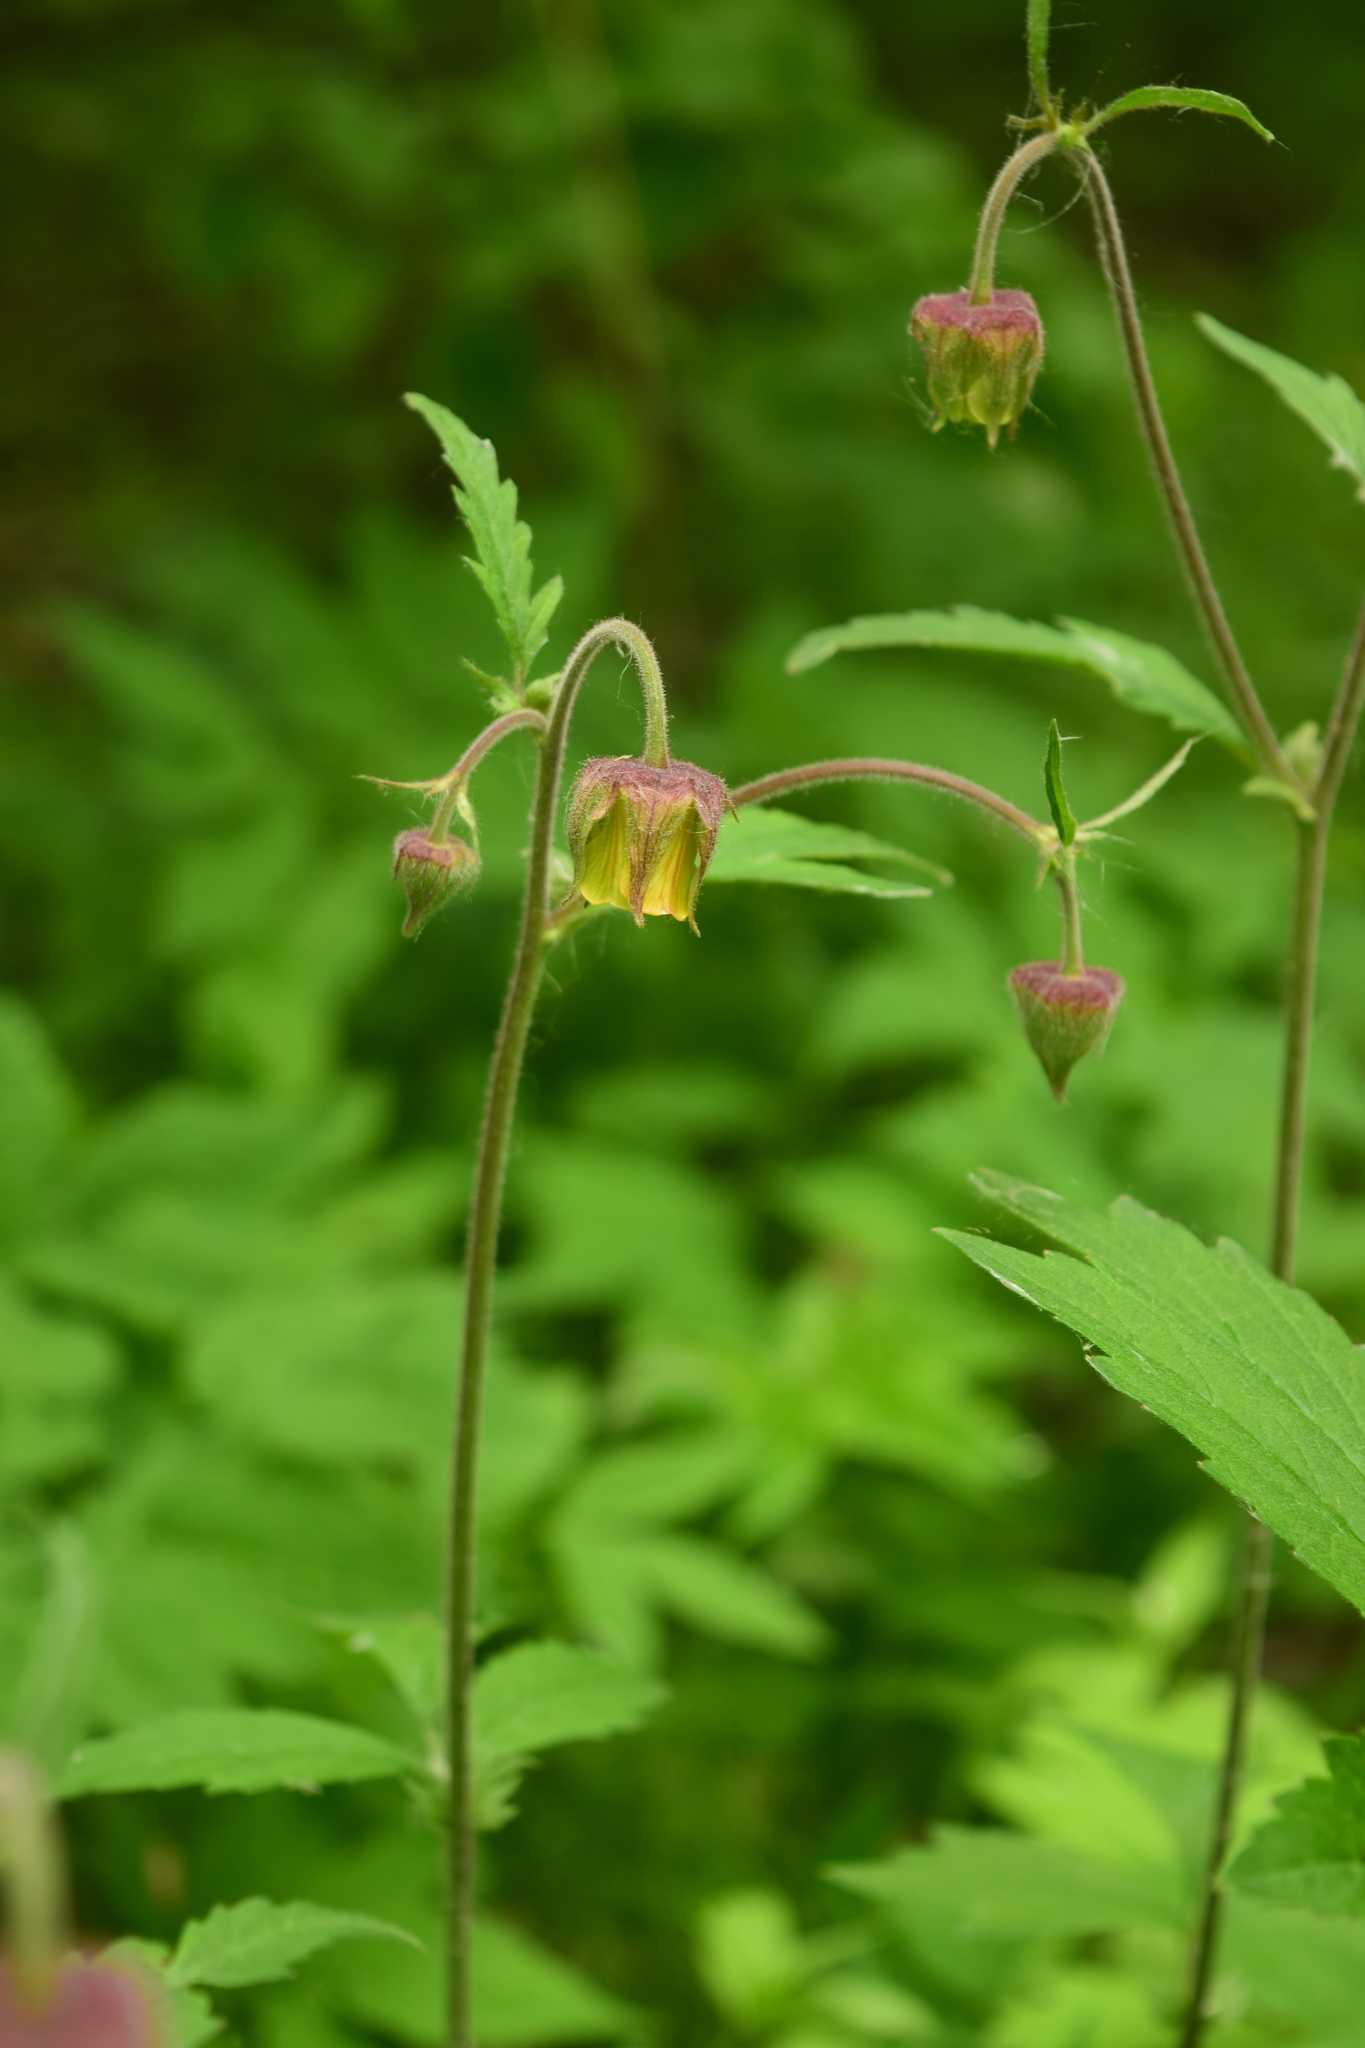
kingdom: Plantae
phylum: Tracheophyta
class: Magnoliopsida
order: Rosales
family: Rosaceae
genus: Geum
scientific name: Geum rivale
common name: Water avens
